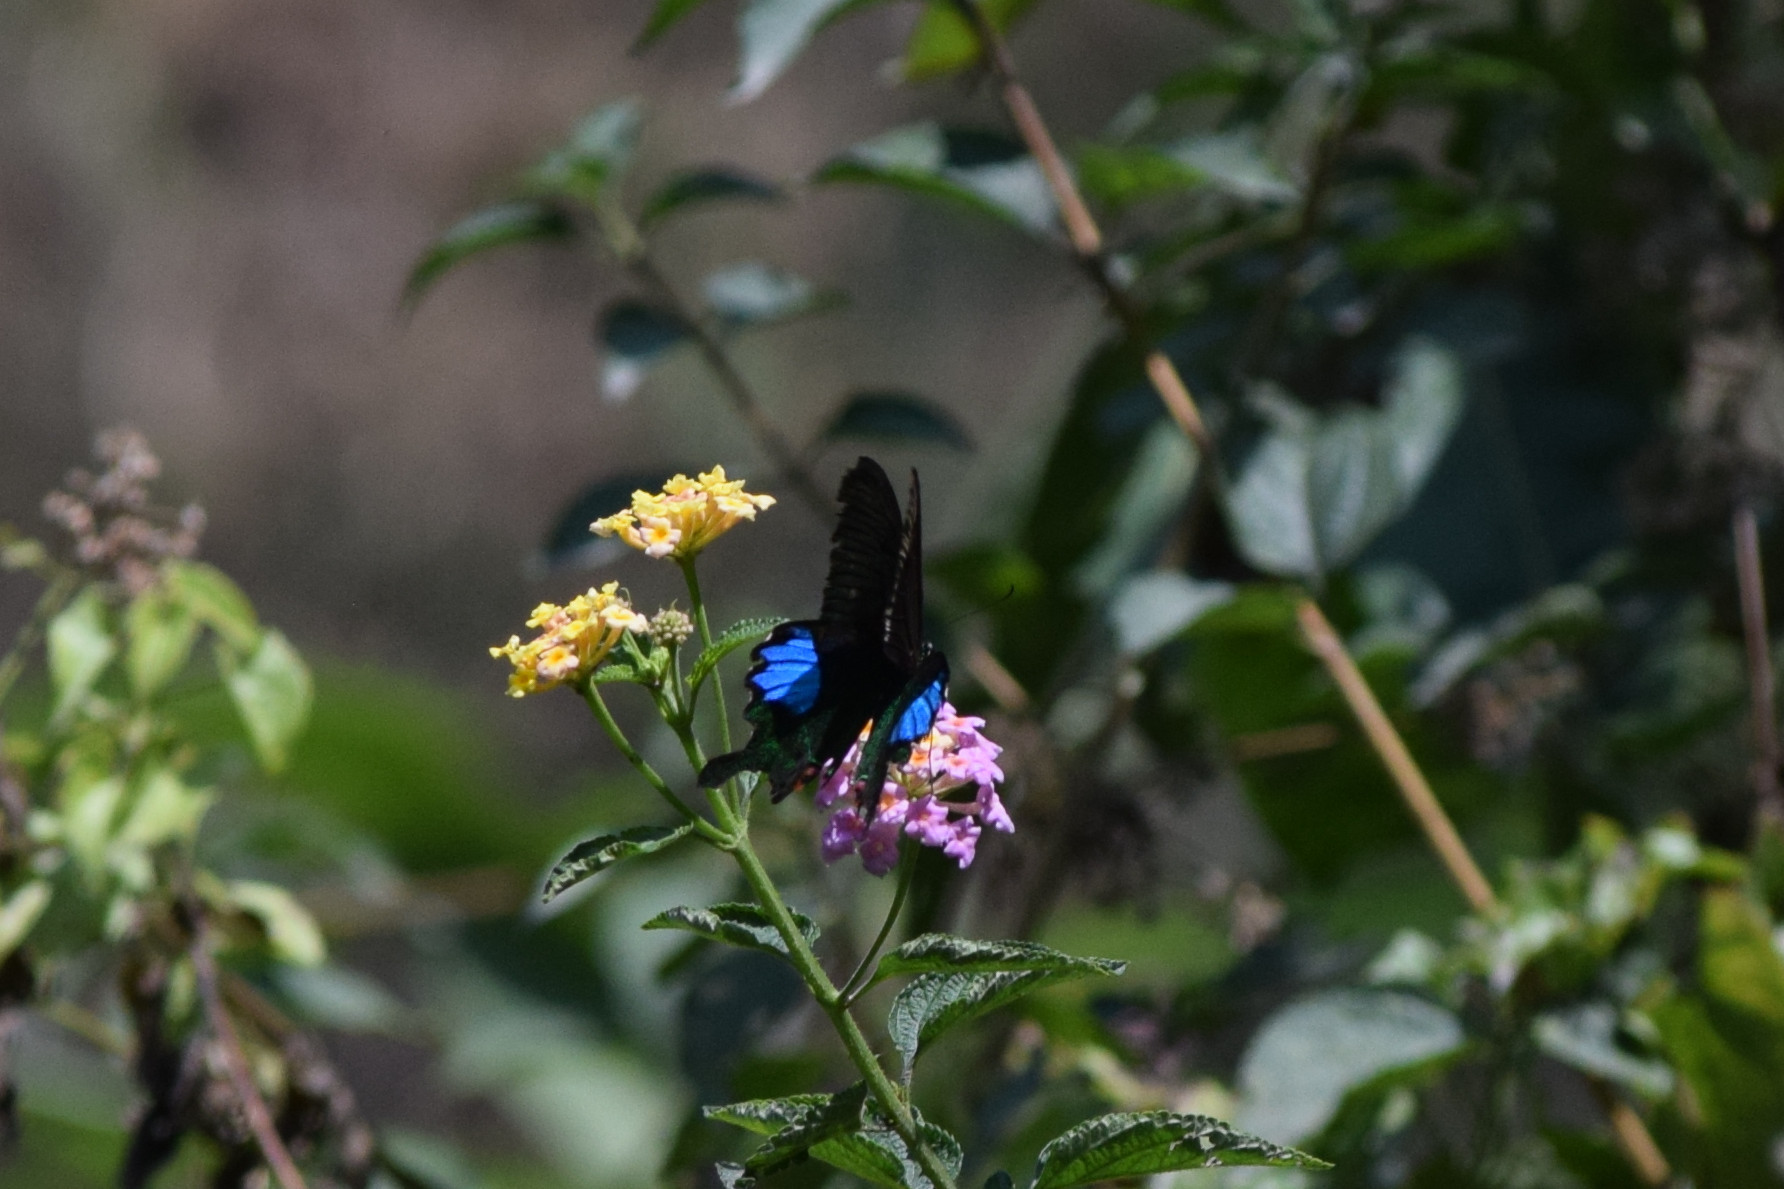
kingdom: Animalia
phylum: Arthropoda
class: Insecta
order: Lepidoptera
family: Papilionidae
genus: Papilio
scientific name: Papilio paris
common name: Paris peacock
